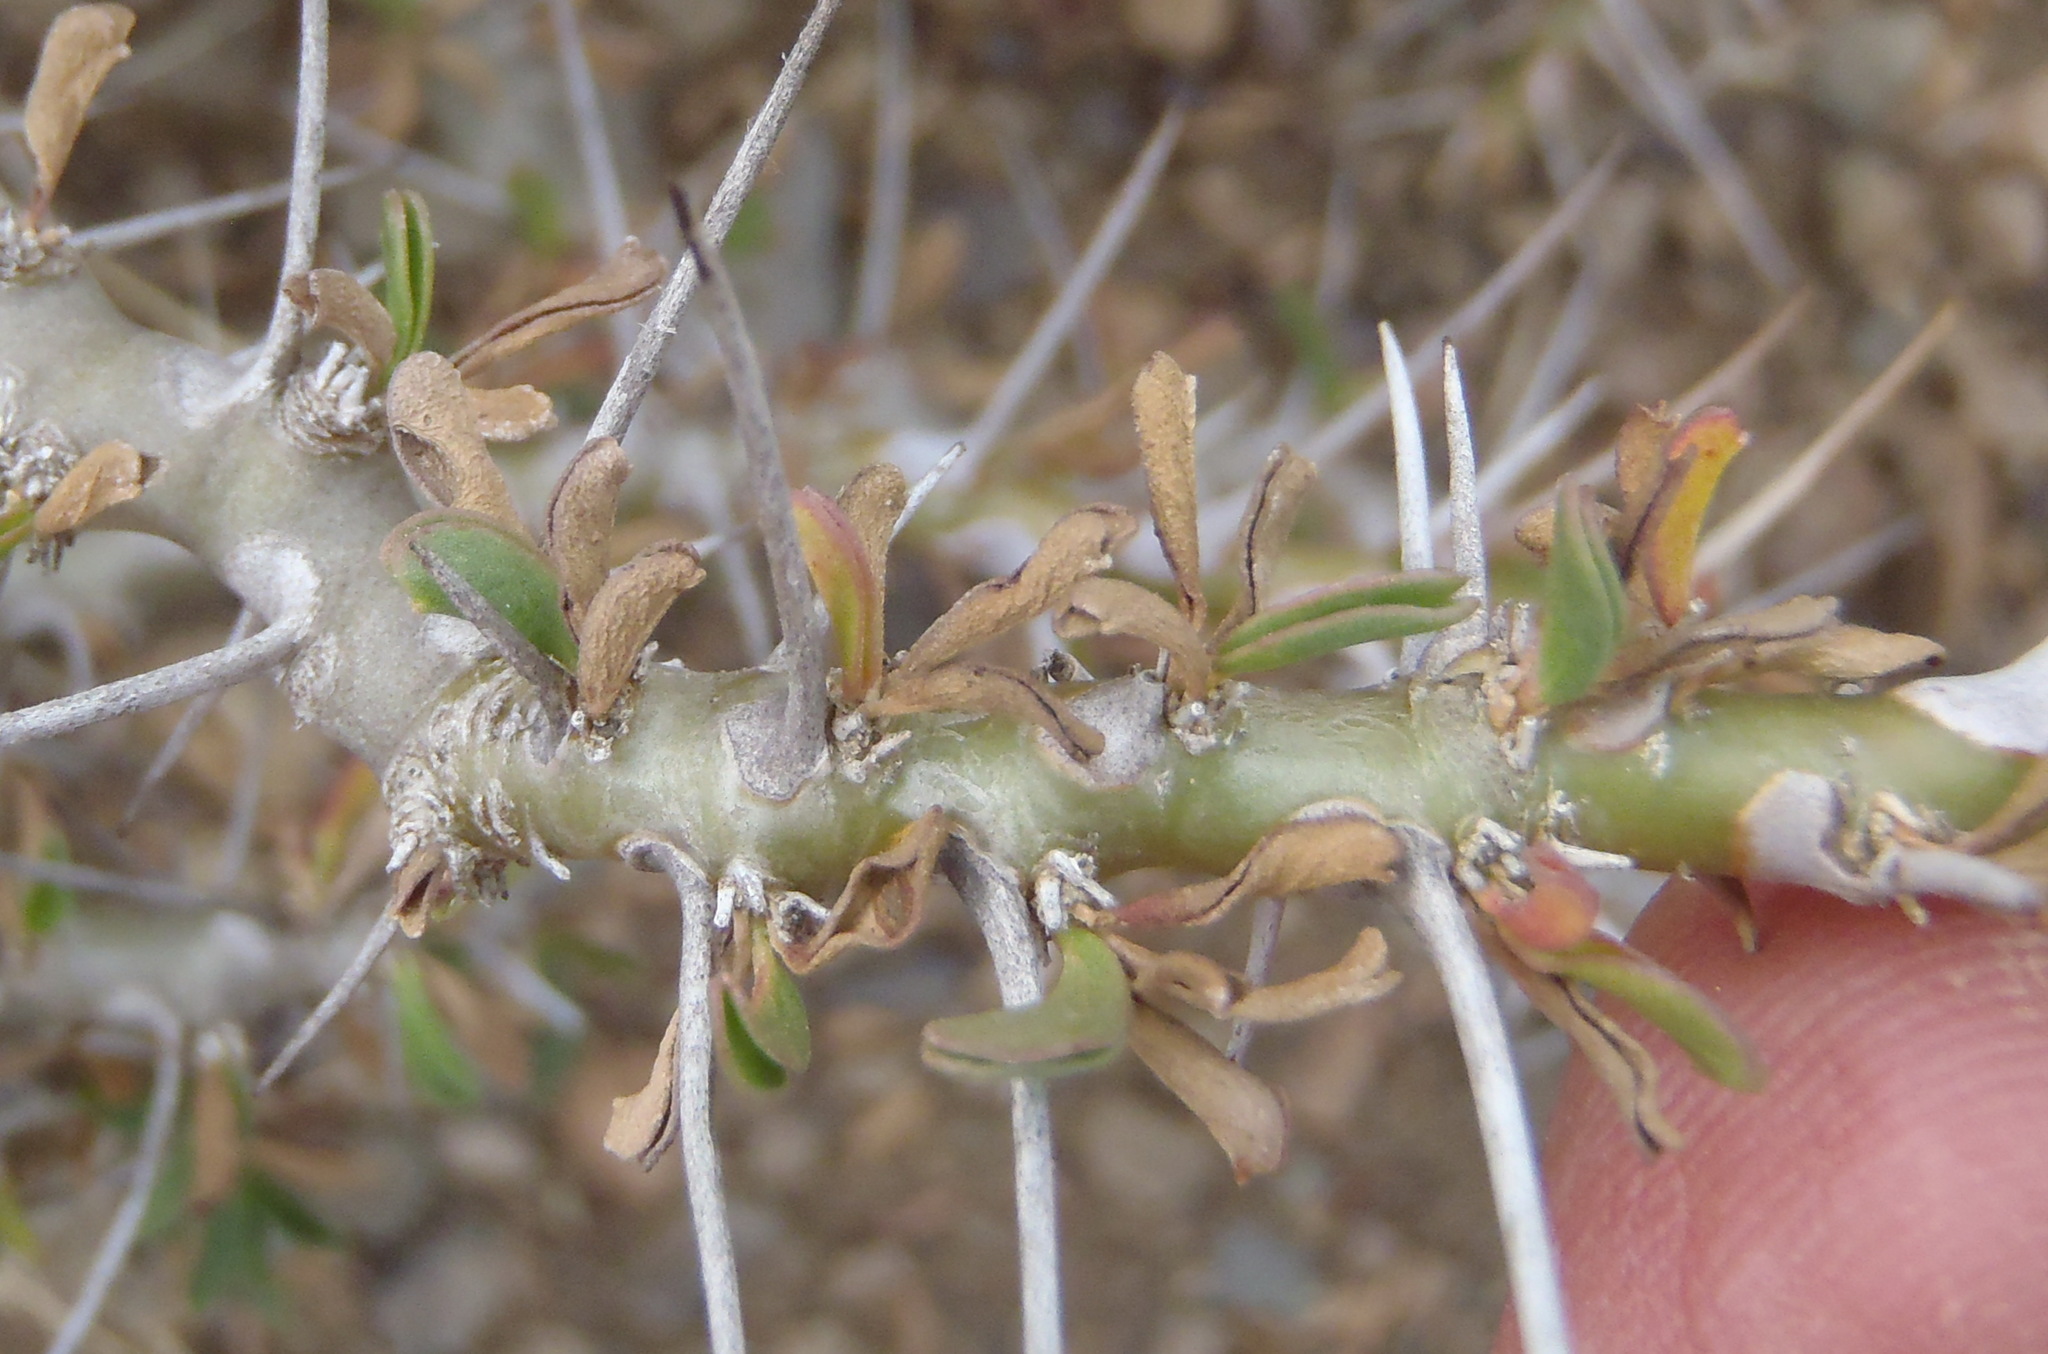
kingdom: Plantae
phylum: Tracheophyta
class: Magnoliopsida
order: Geraniales
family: Geraniaceae
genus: Monsonia
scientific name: Monsonia camdeboensis
